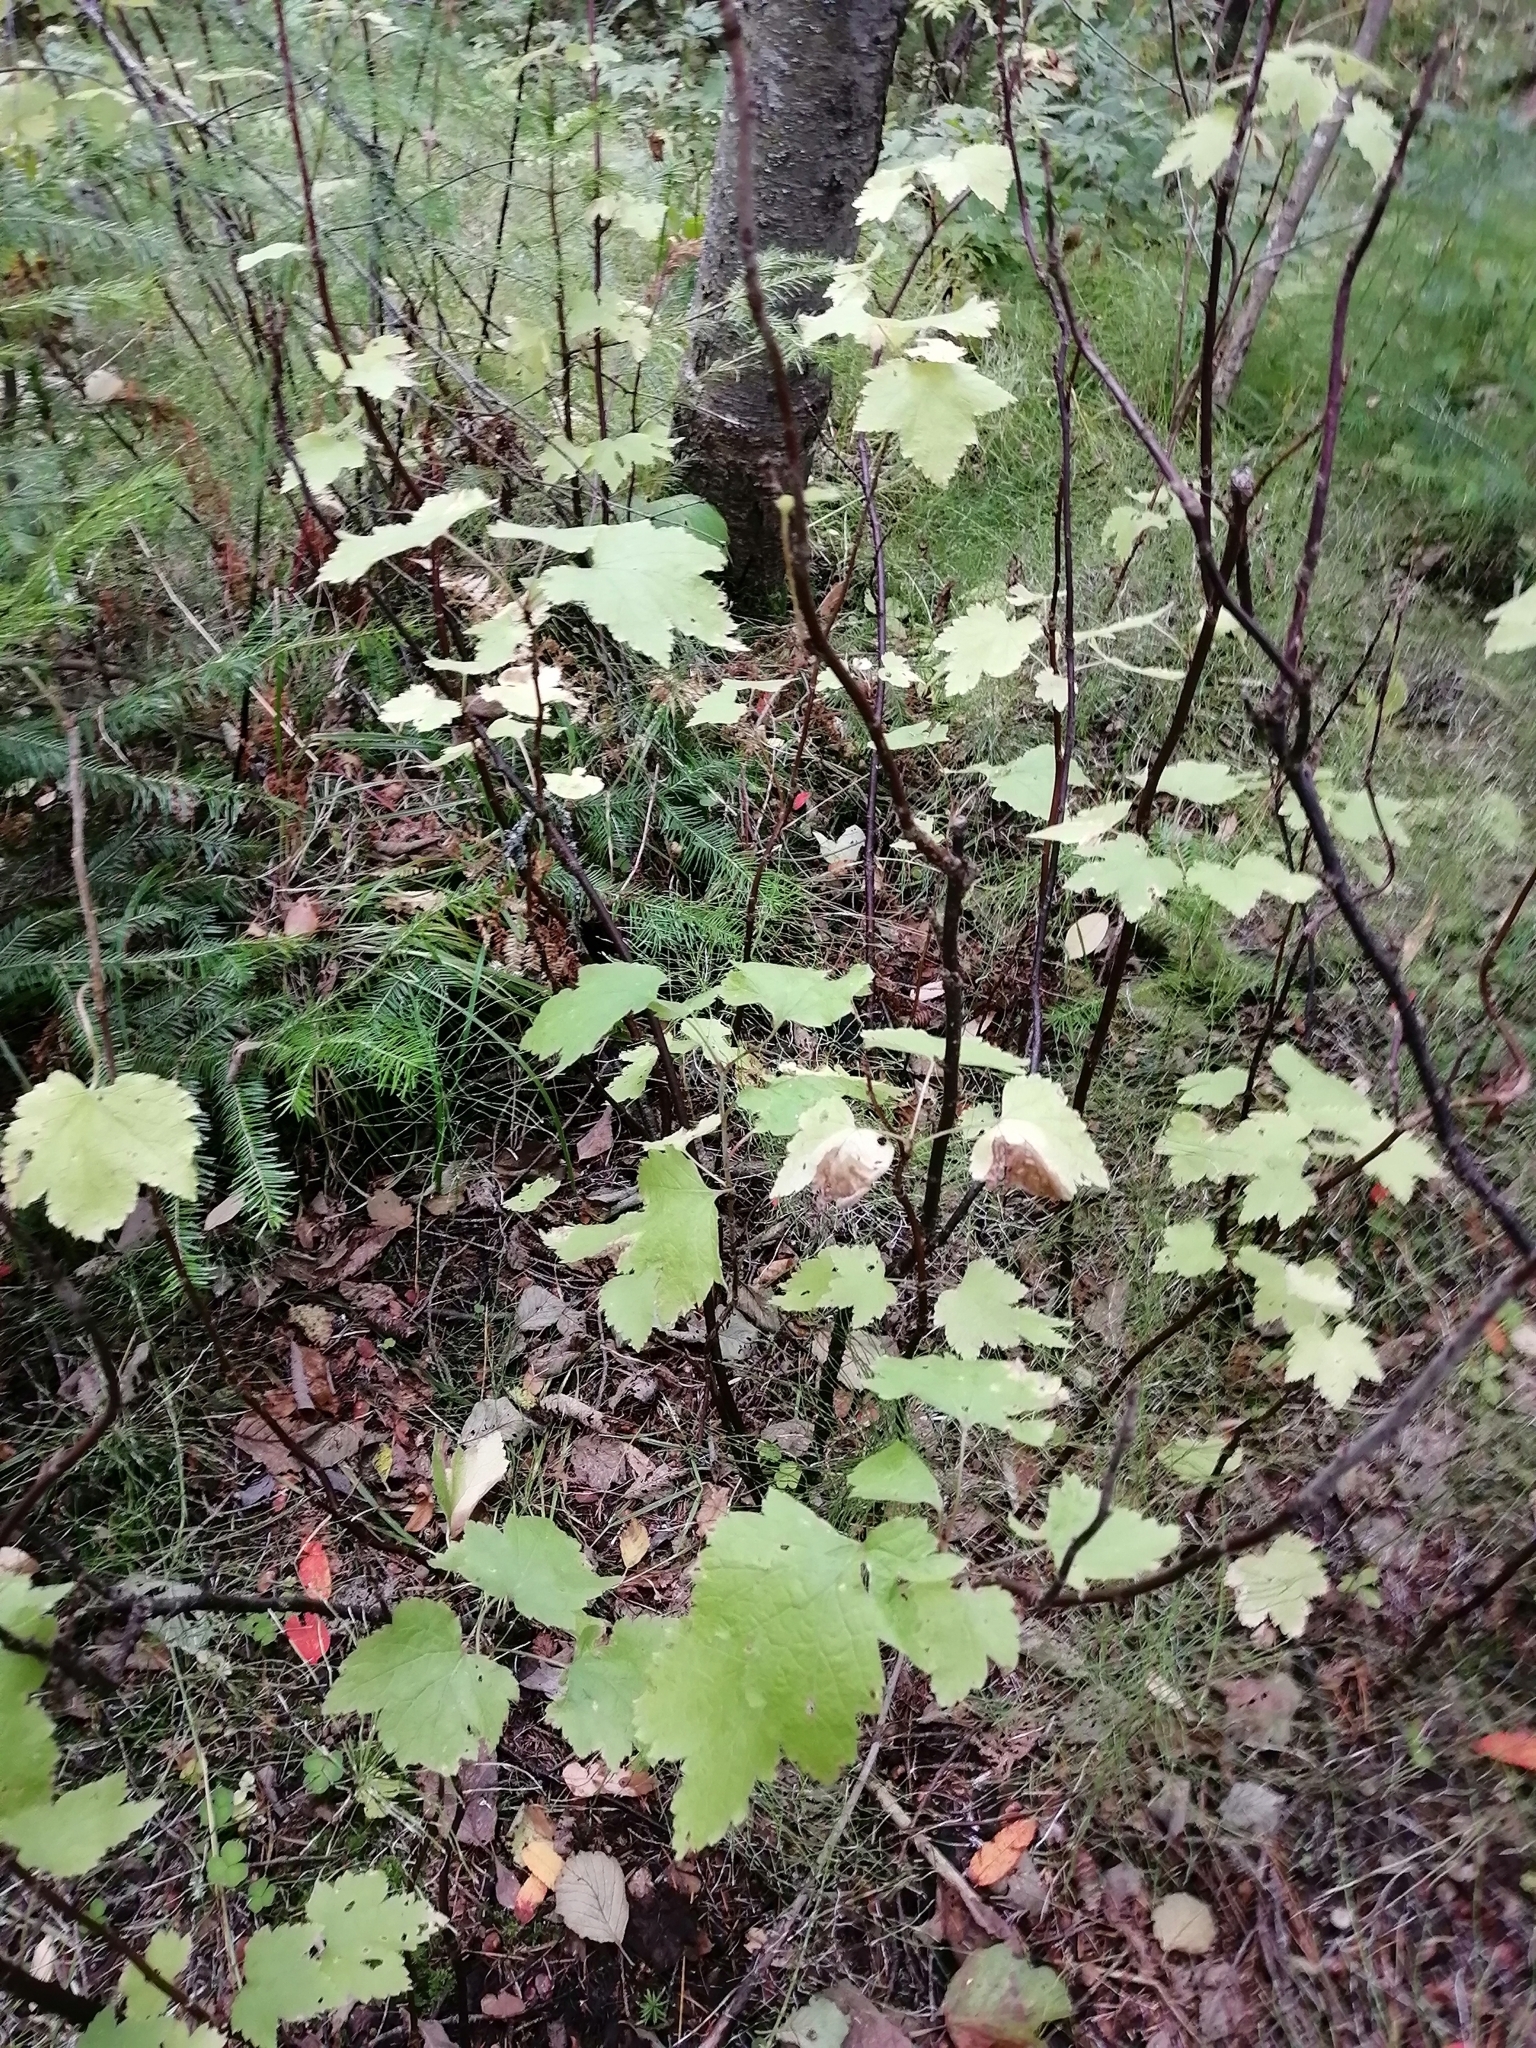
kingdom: Plantae
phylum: Tracheophyta
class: Magnoliopsida
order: Saxifragales
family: Grossulariaceae
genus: Ribes
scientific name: Ribes spicatum
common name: Downy currant
